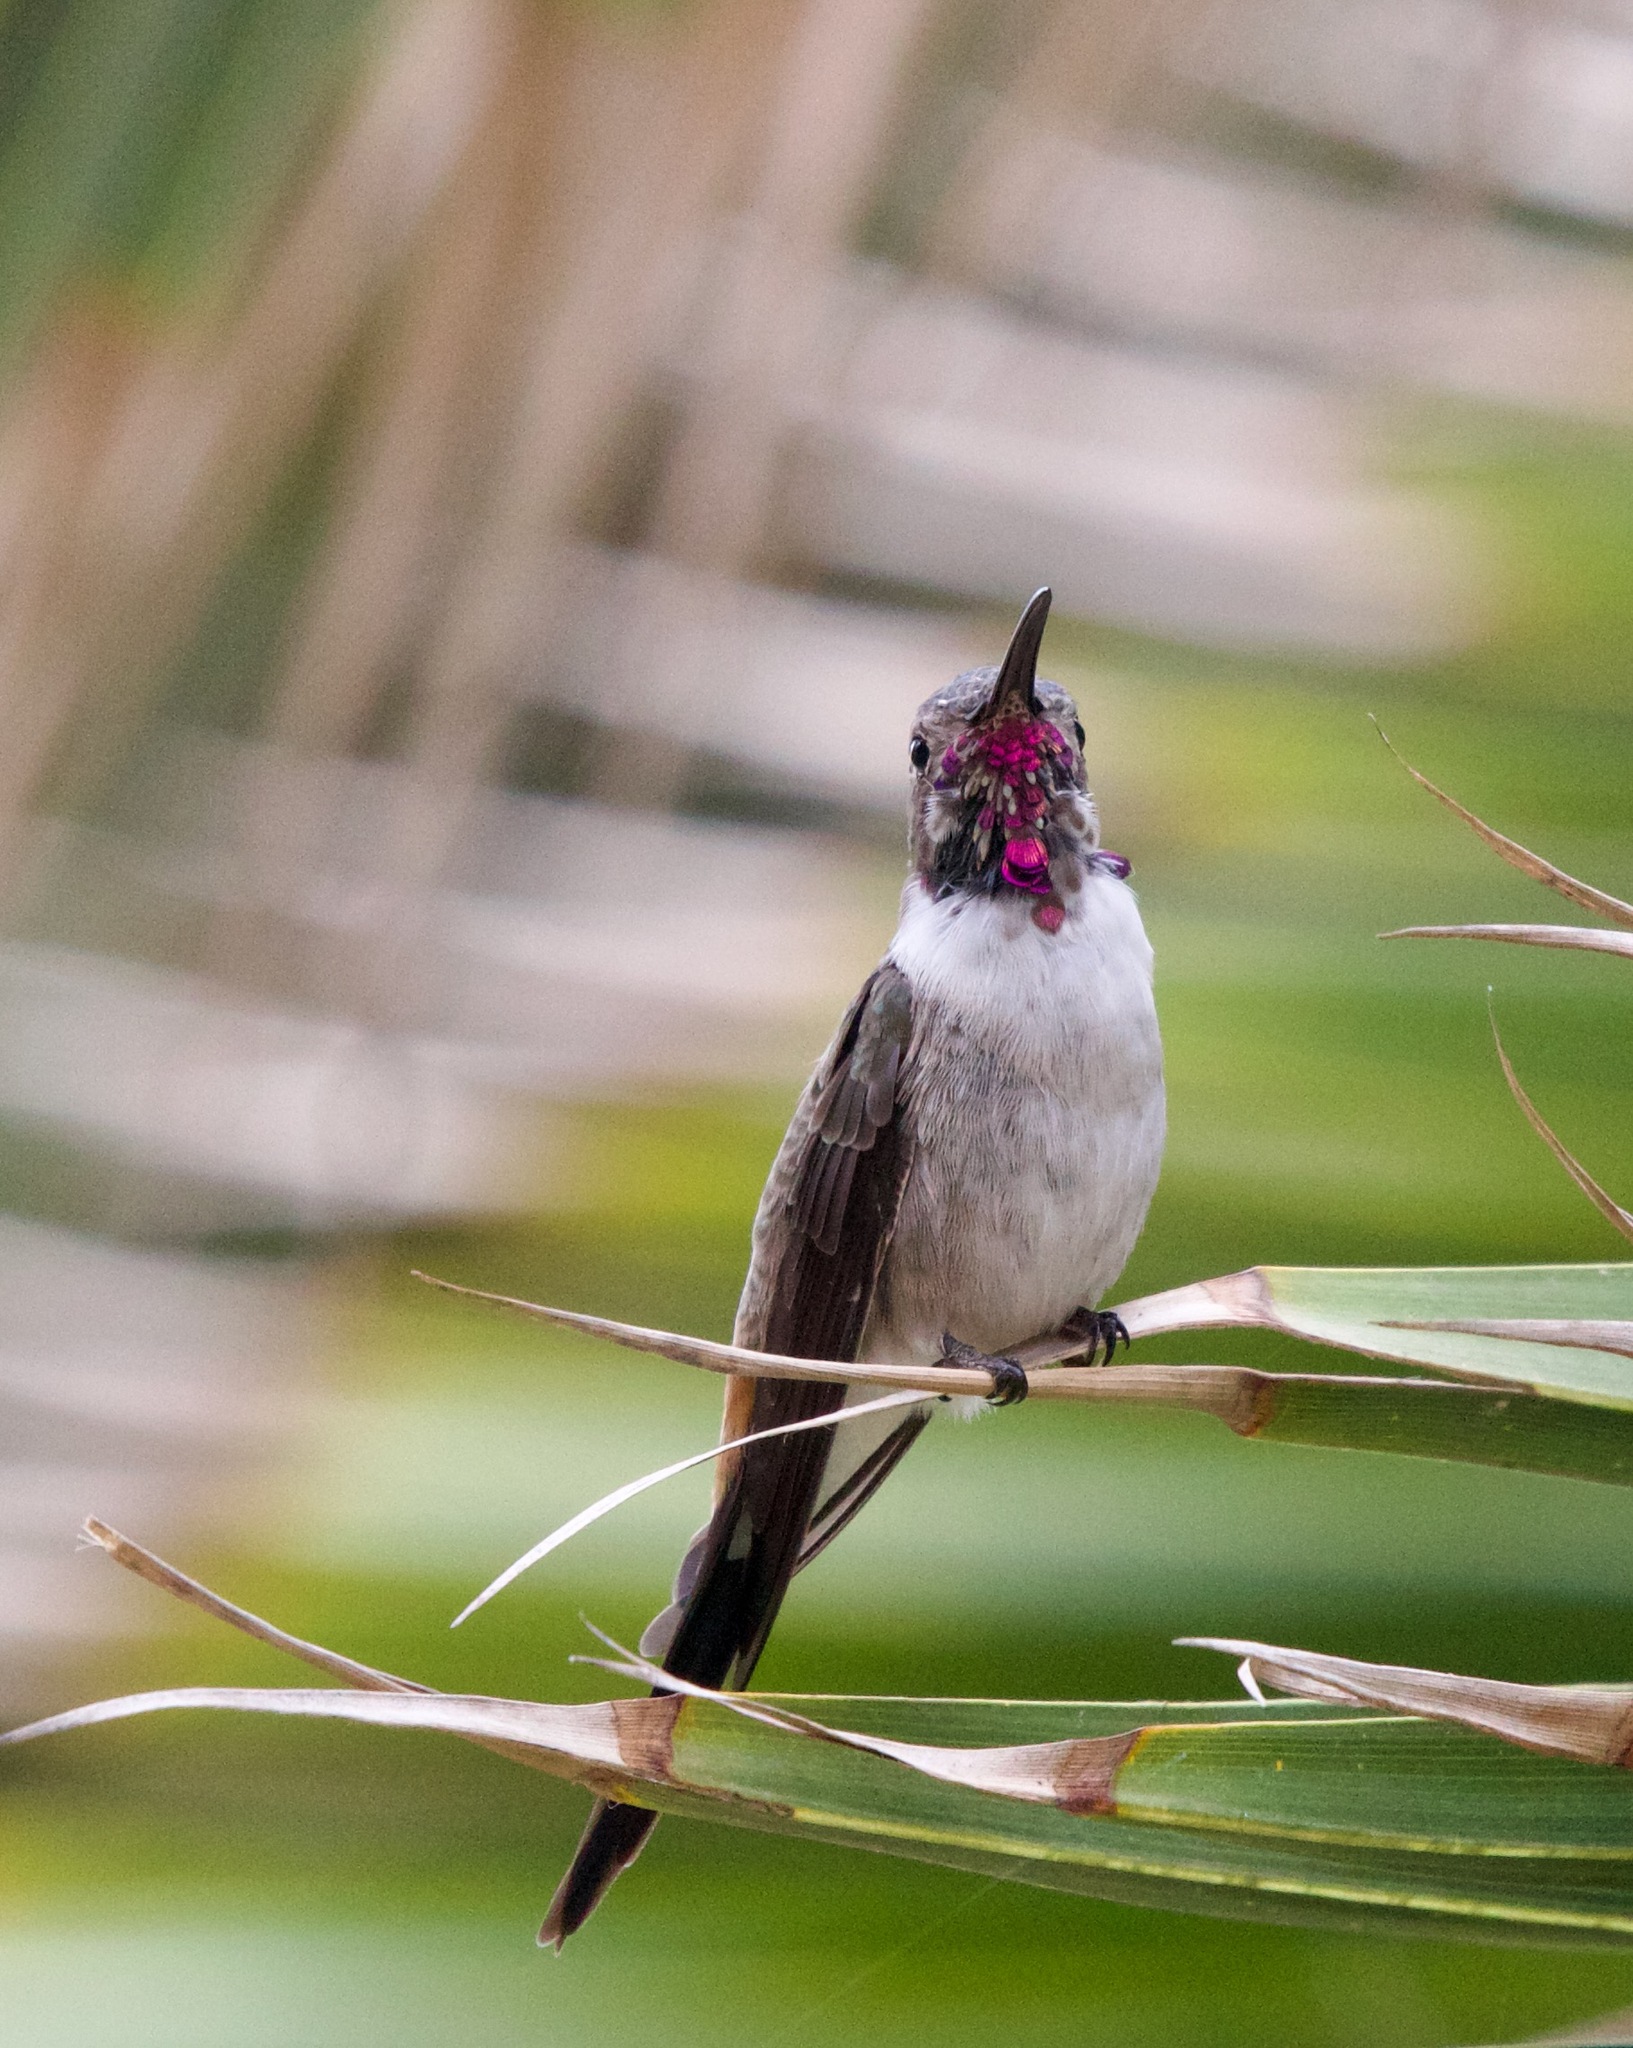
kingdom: Animalia
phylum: Chordata
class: Aves
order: Apodiformes
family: Trochilidae
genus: Rhodopis
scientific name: Rhodopis vesper
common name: Oasis hummingbird
